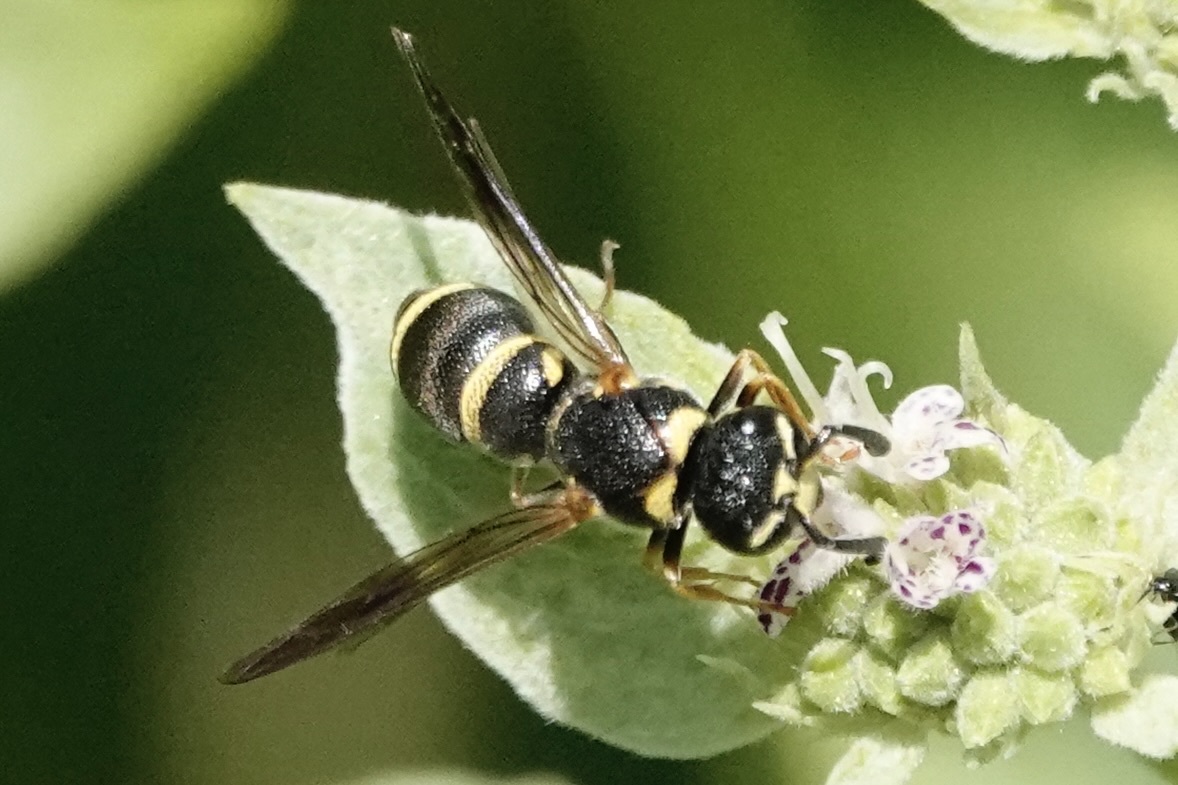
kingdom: Animalia
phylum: Arthropoda
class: Insecta
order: Hymenoptera
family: Eumenidae
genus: Parancistrocerus
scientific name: Parancistrocerus fulvipes
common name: Potter wasp
